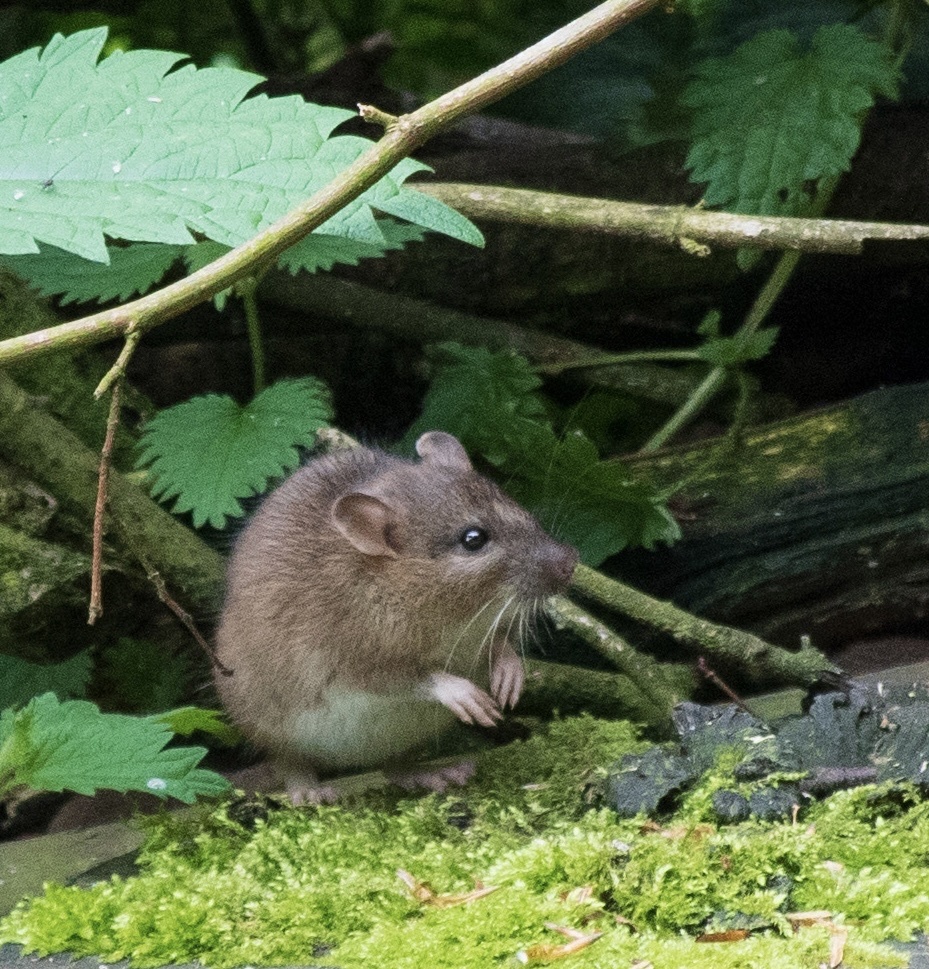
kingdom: Animalia
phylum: Chordata
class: Mammalia
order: Rodentia
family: Muridae
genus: Rattus
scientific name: Rattus norvegicus
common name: Brown rat
